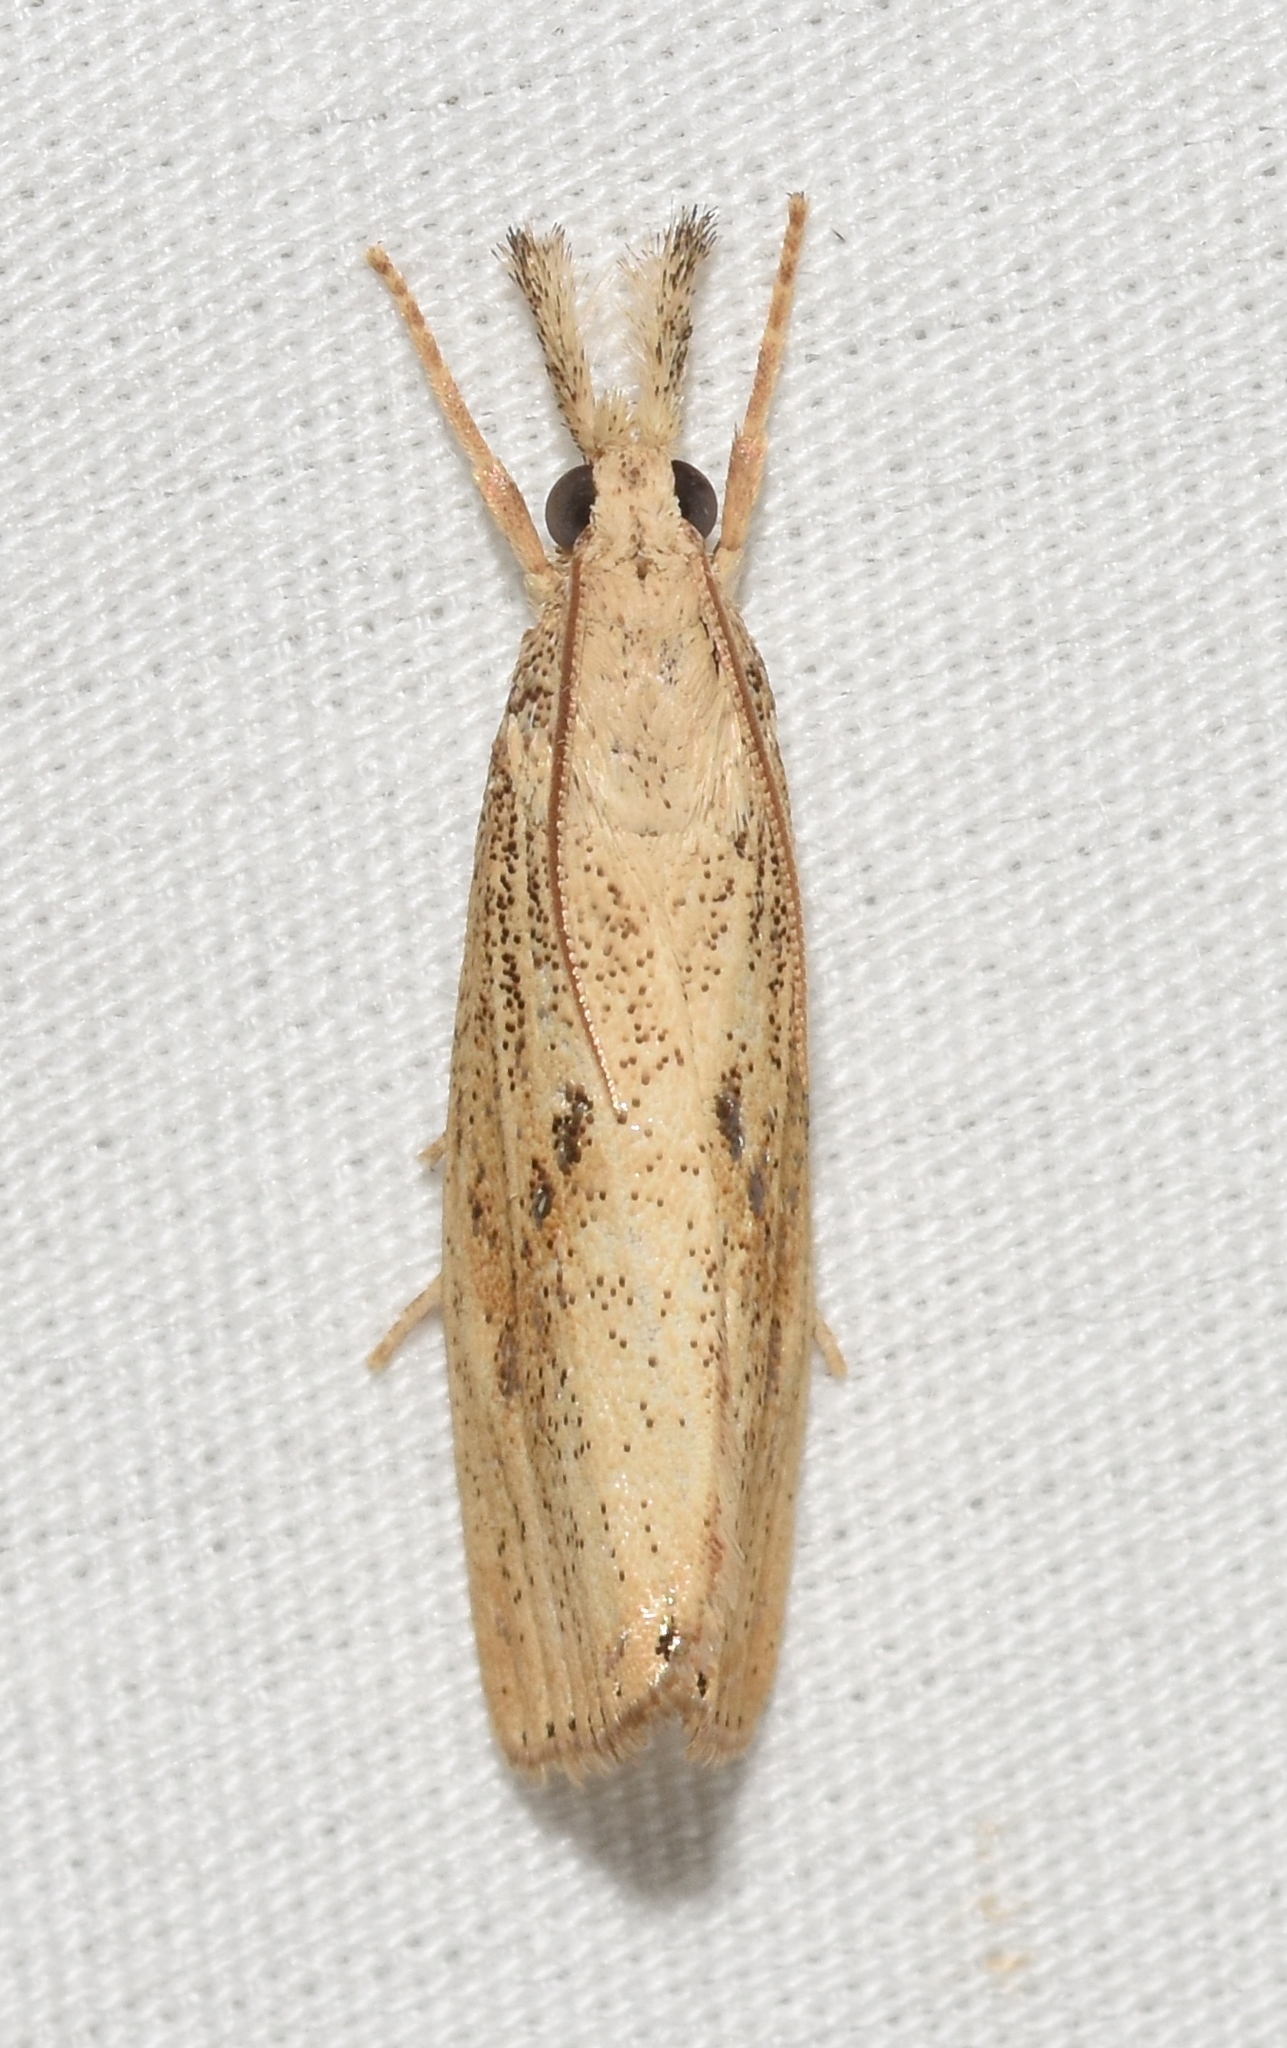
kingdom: Animalia
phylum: Arthropoda
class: Insecta
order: Lepidoptera
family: Crambidae
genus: Chilo
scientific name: Chilo plejadellus
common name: Rice stalk borer moth
